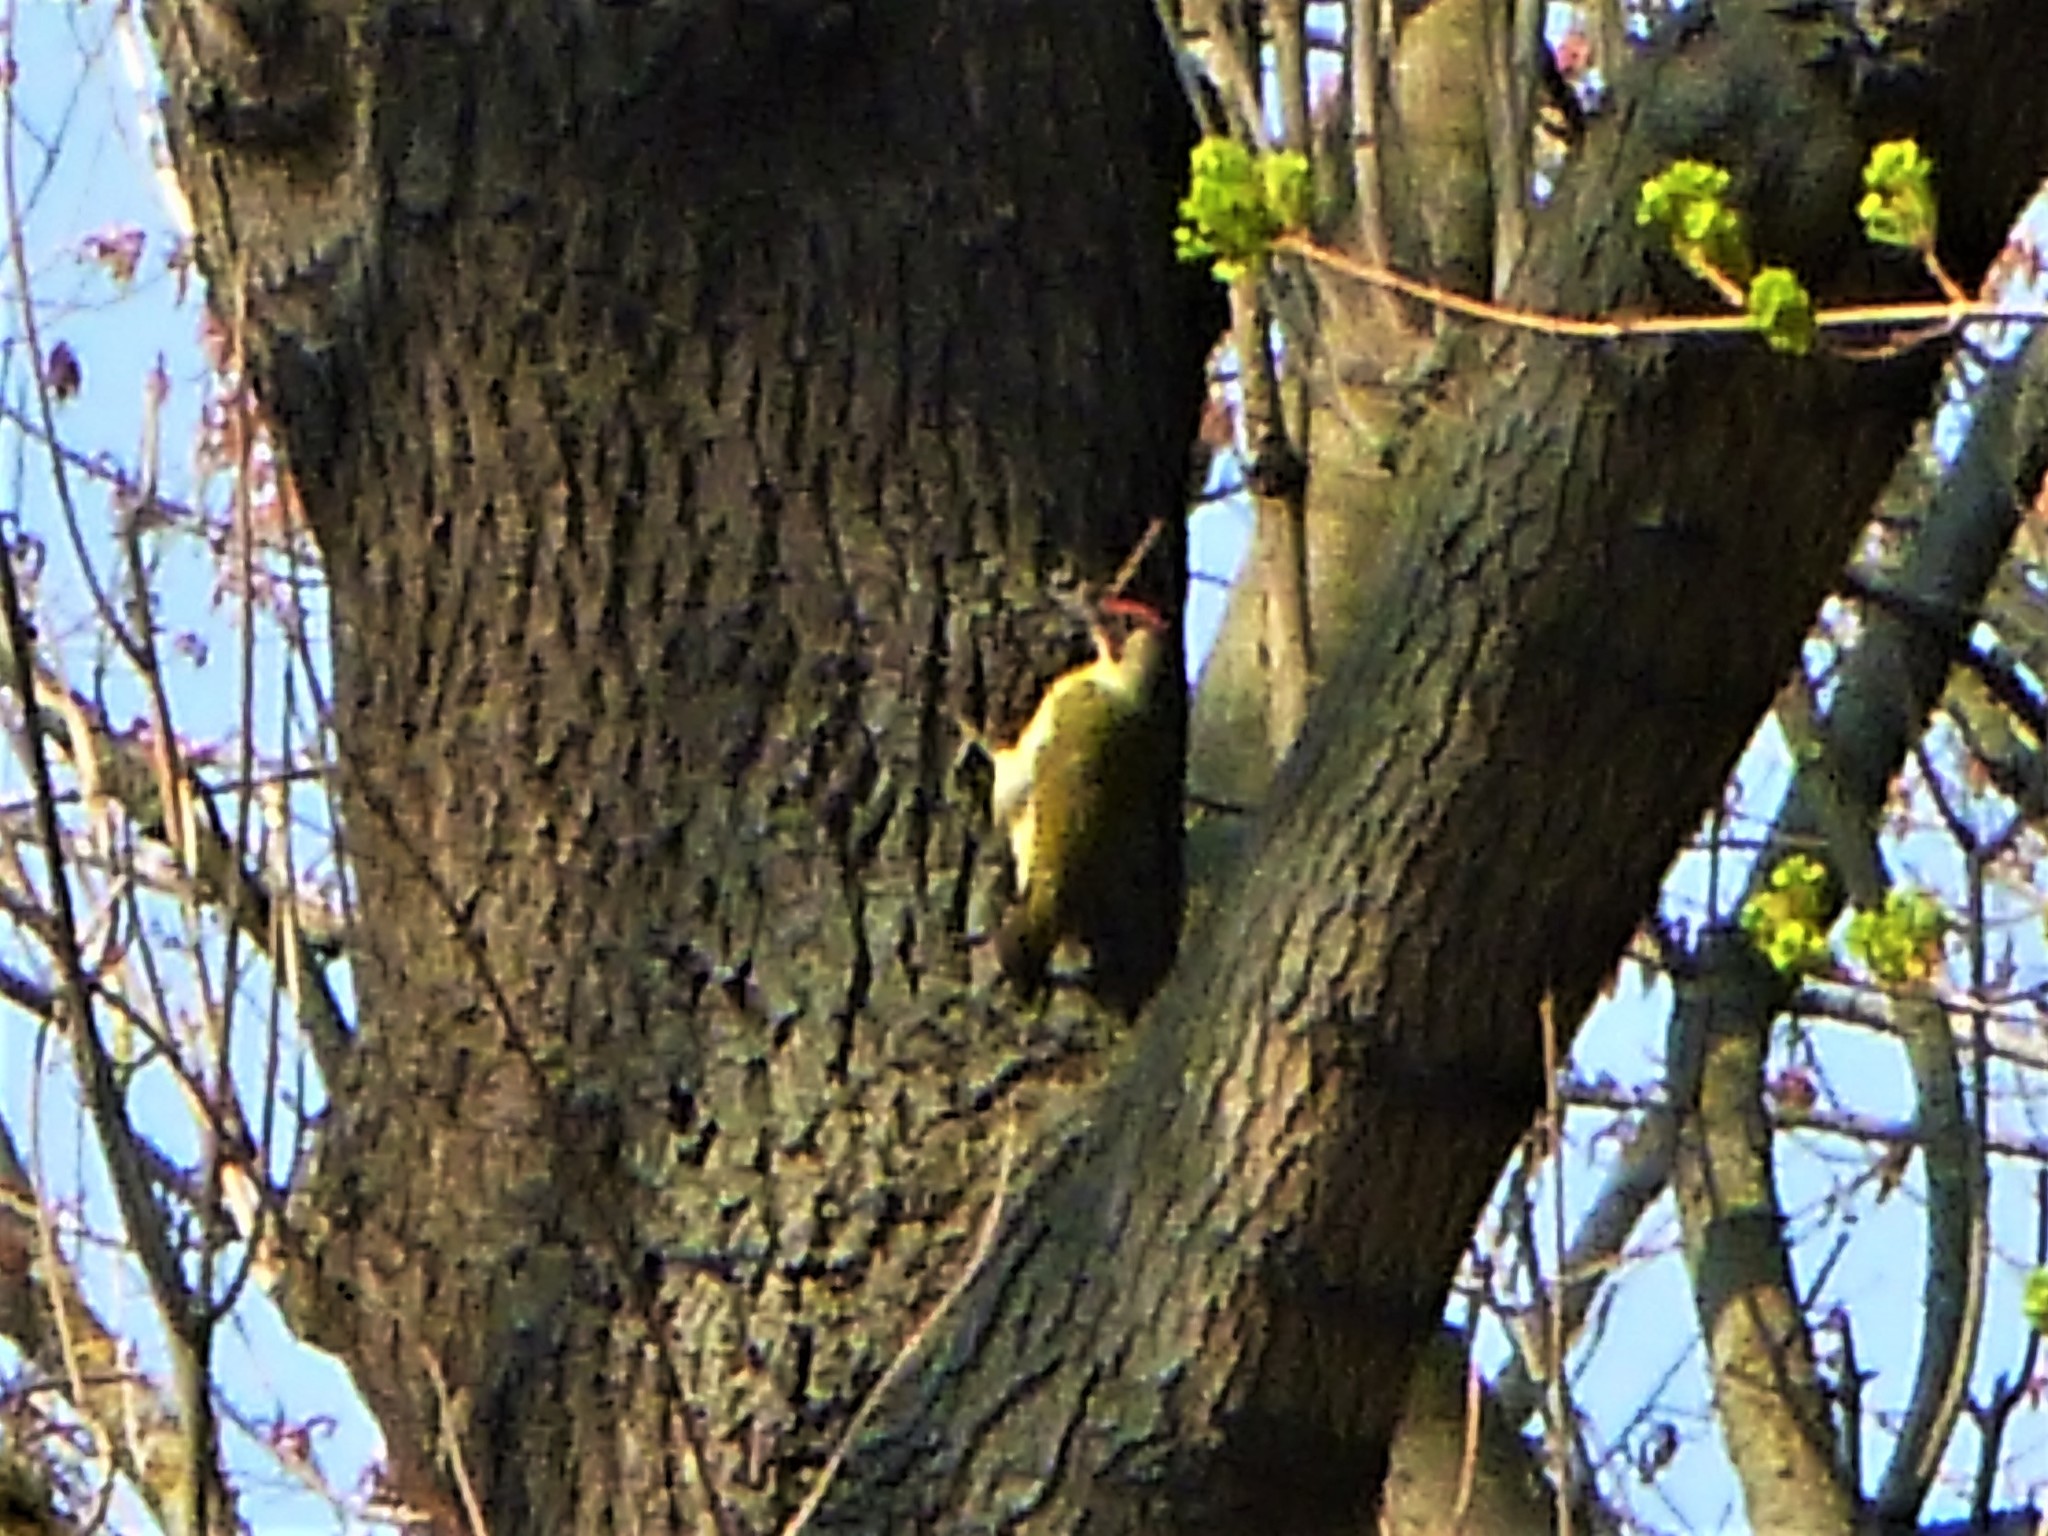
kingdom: Animalia
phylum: Chordata
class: Aves
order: Piciformes
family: Picidae
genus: Picus
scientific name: Picus viridis
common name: European green woodpecker
